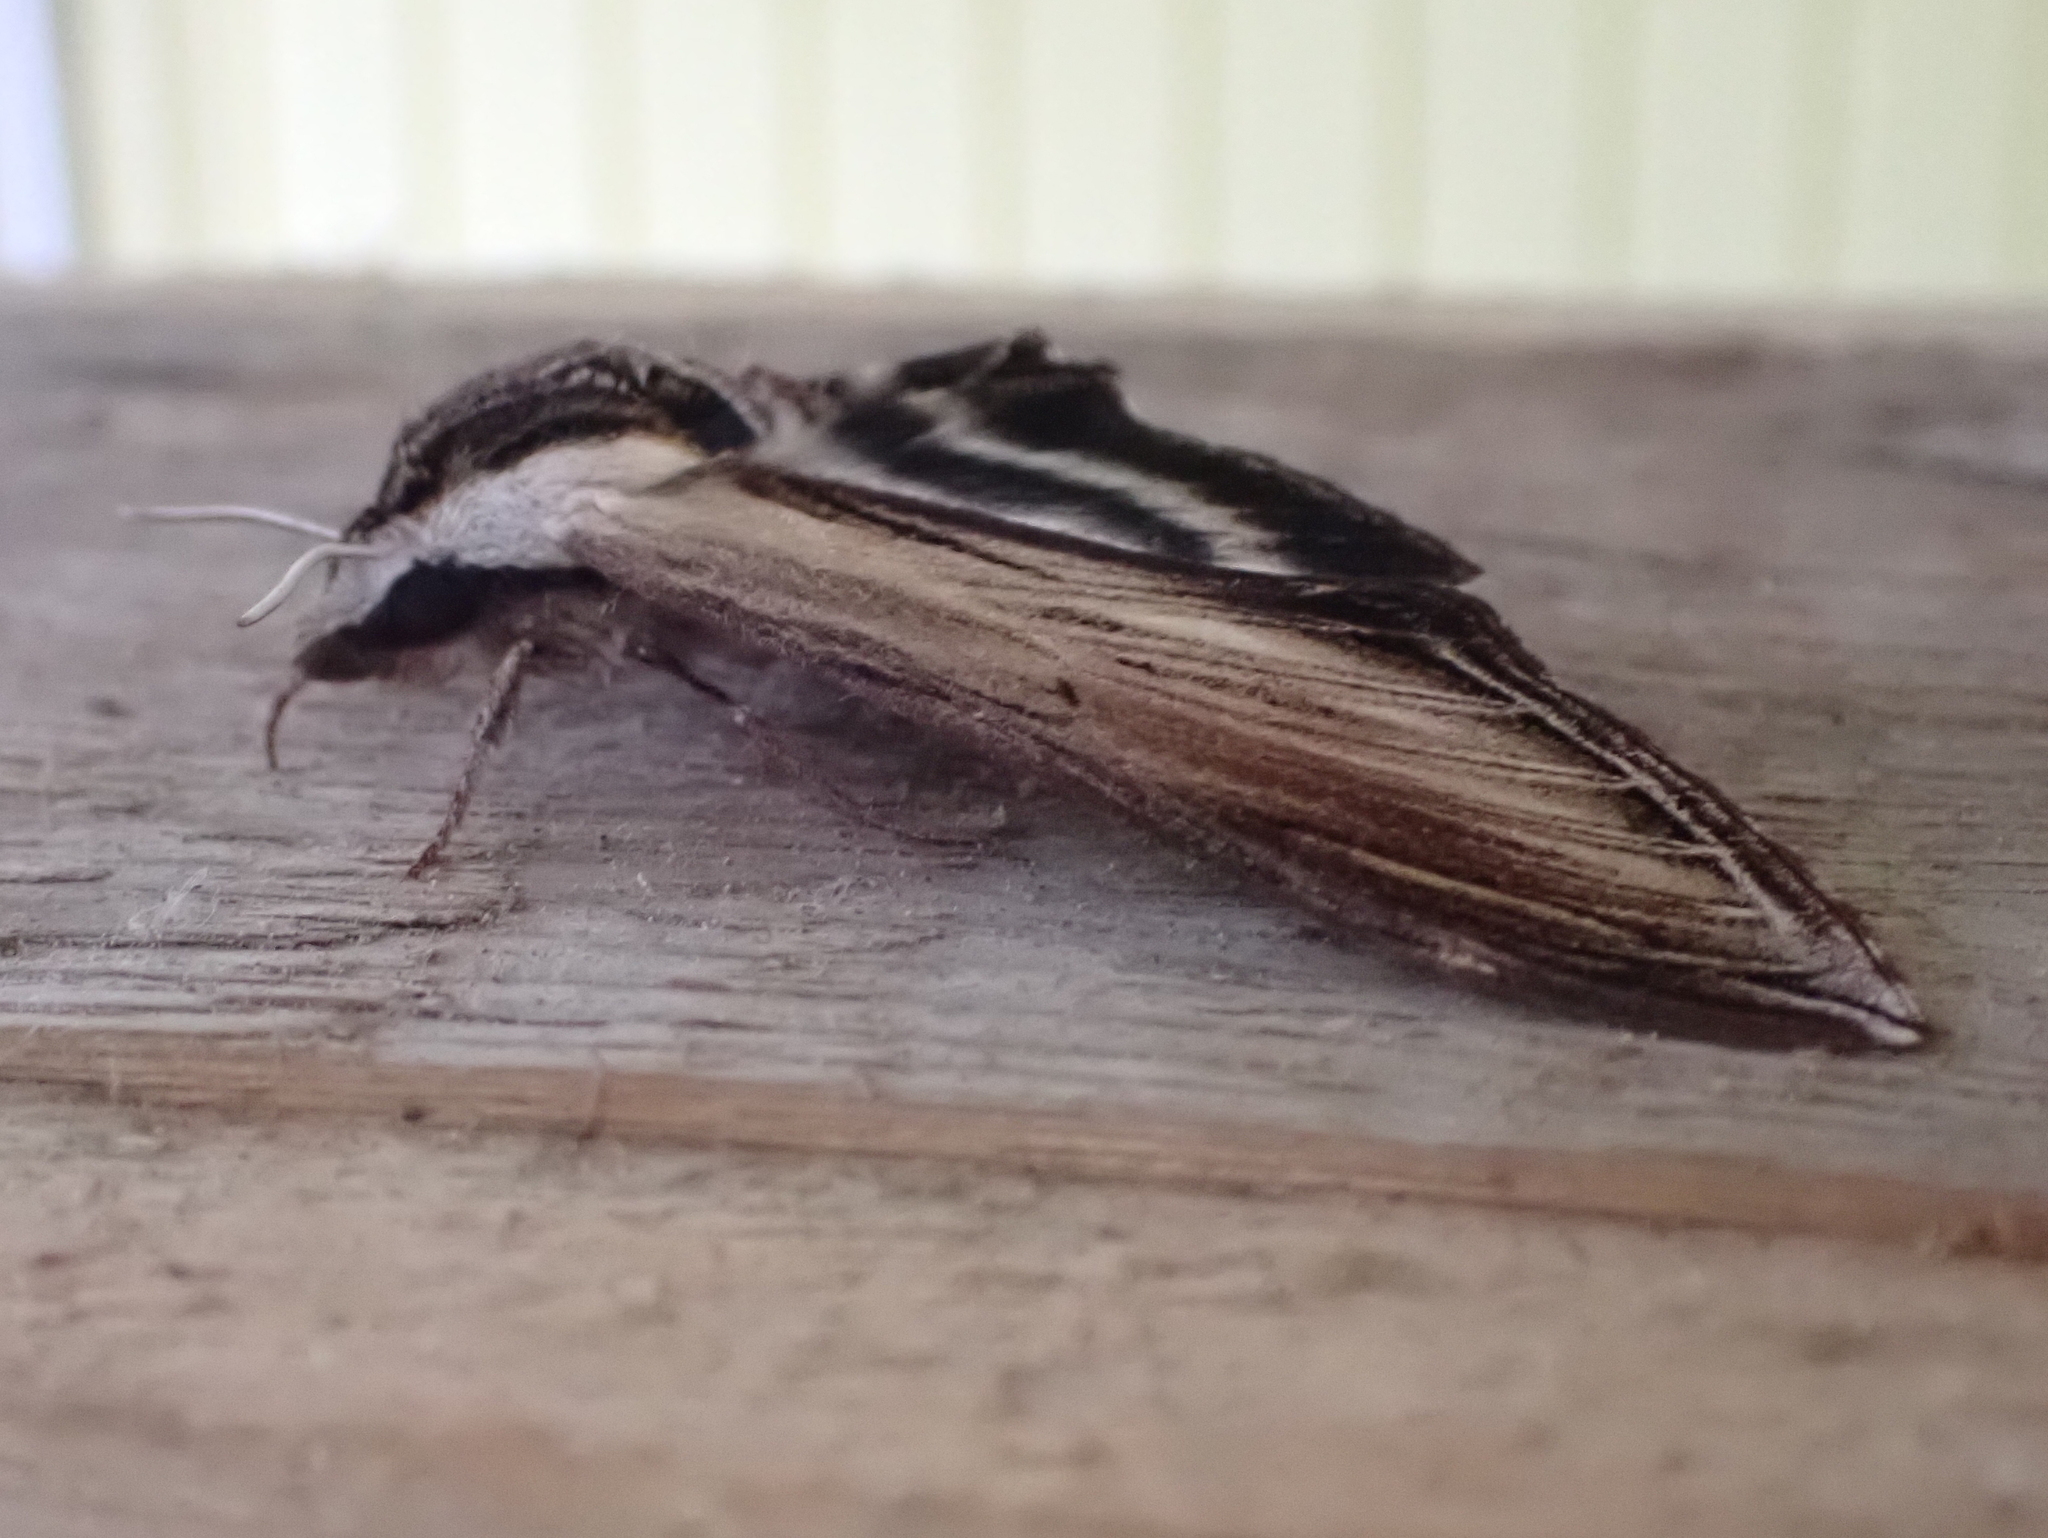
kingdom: Animalia
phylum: Arthropoda
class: Insecta
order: Lepidoptera
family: Sphingidae
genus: Sphinx
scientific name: Sphinx kalmiae
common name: Laurel sphinx
